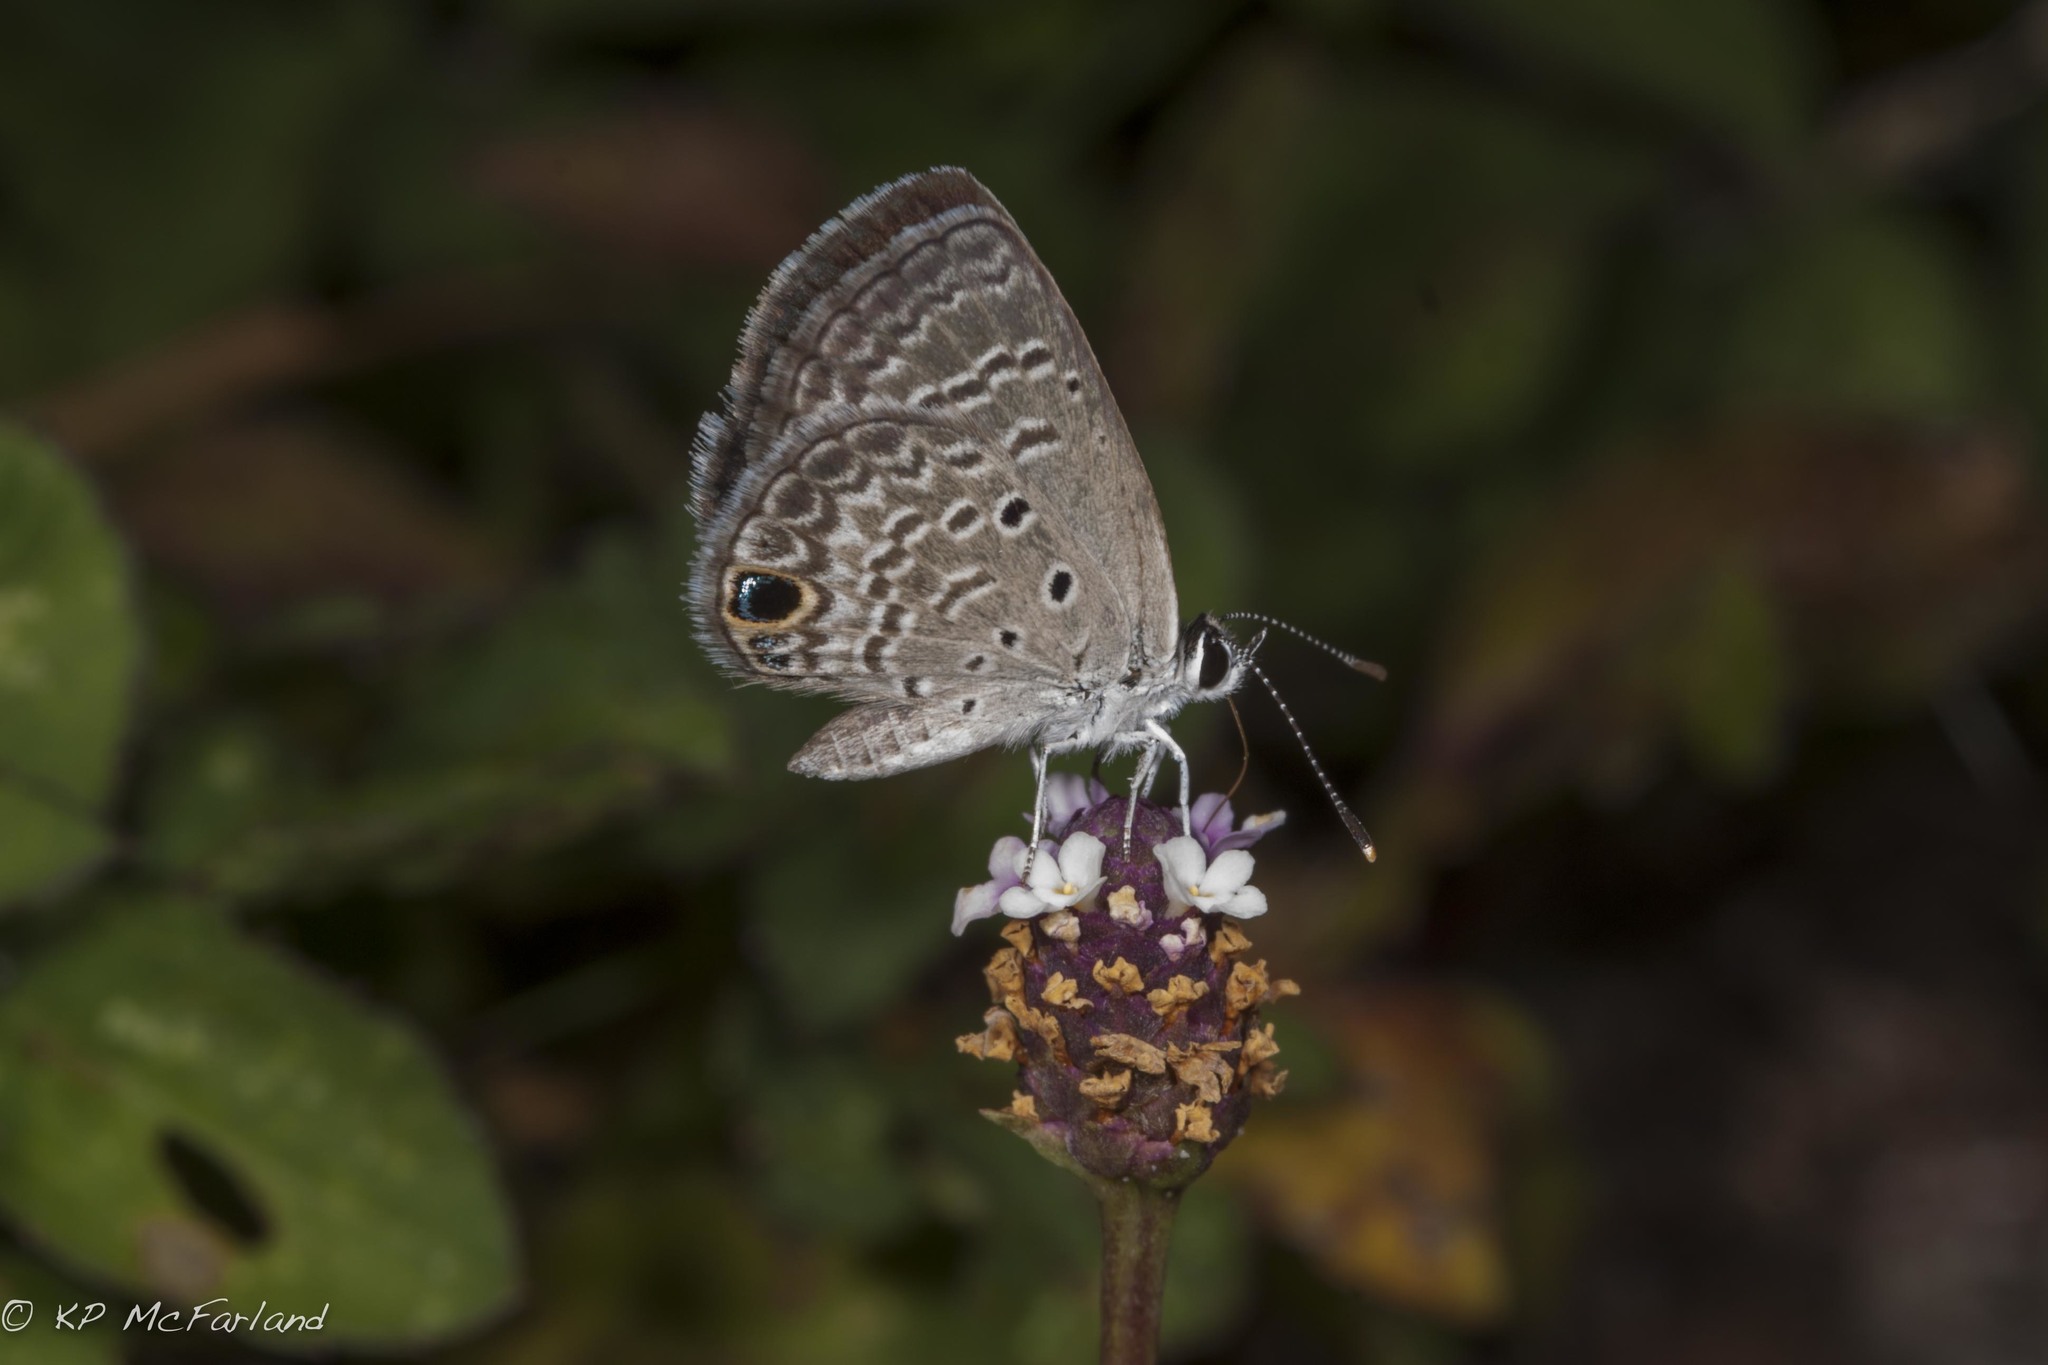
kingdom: Animalia
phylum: Arthropoda
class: Insecta
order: Lepidoptera
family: Lycaenidae
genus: Hemiargus
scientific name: Hemiargus ceraunus
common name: Ceraunus blue
